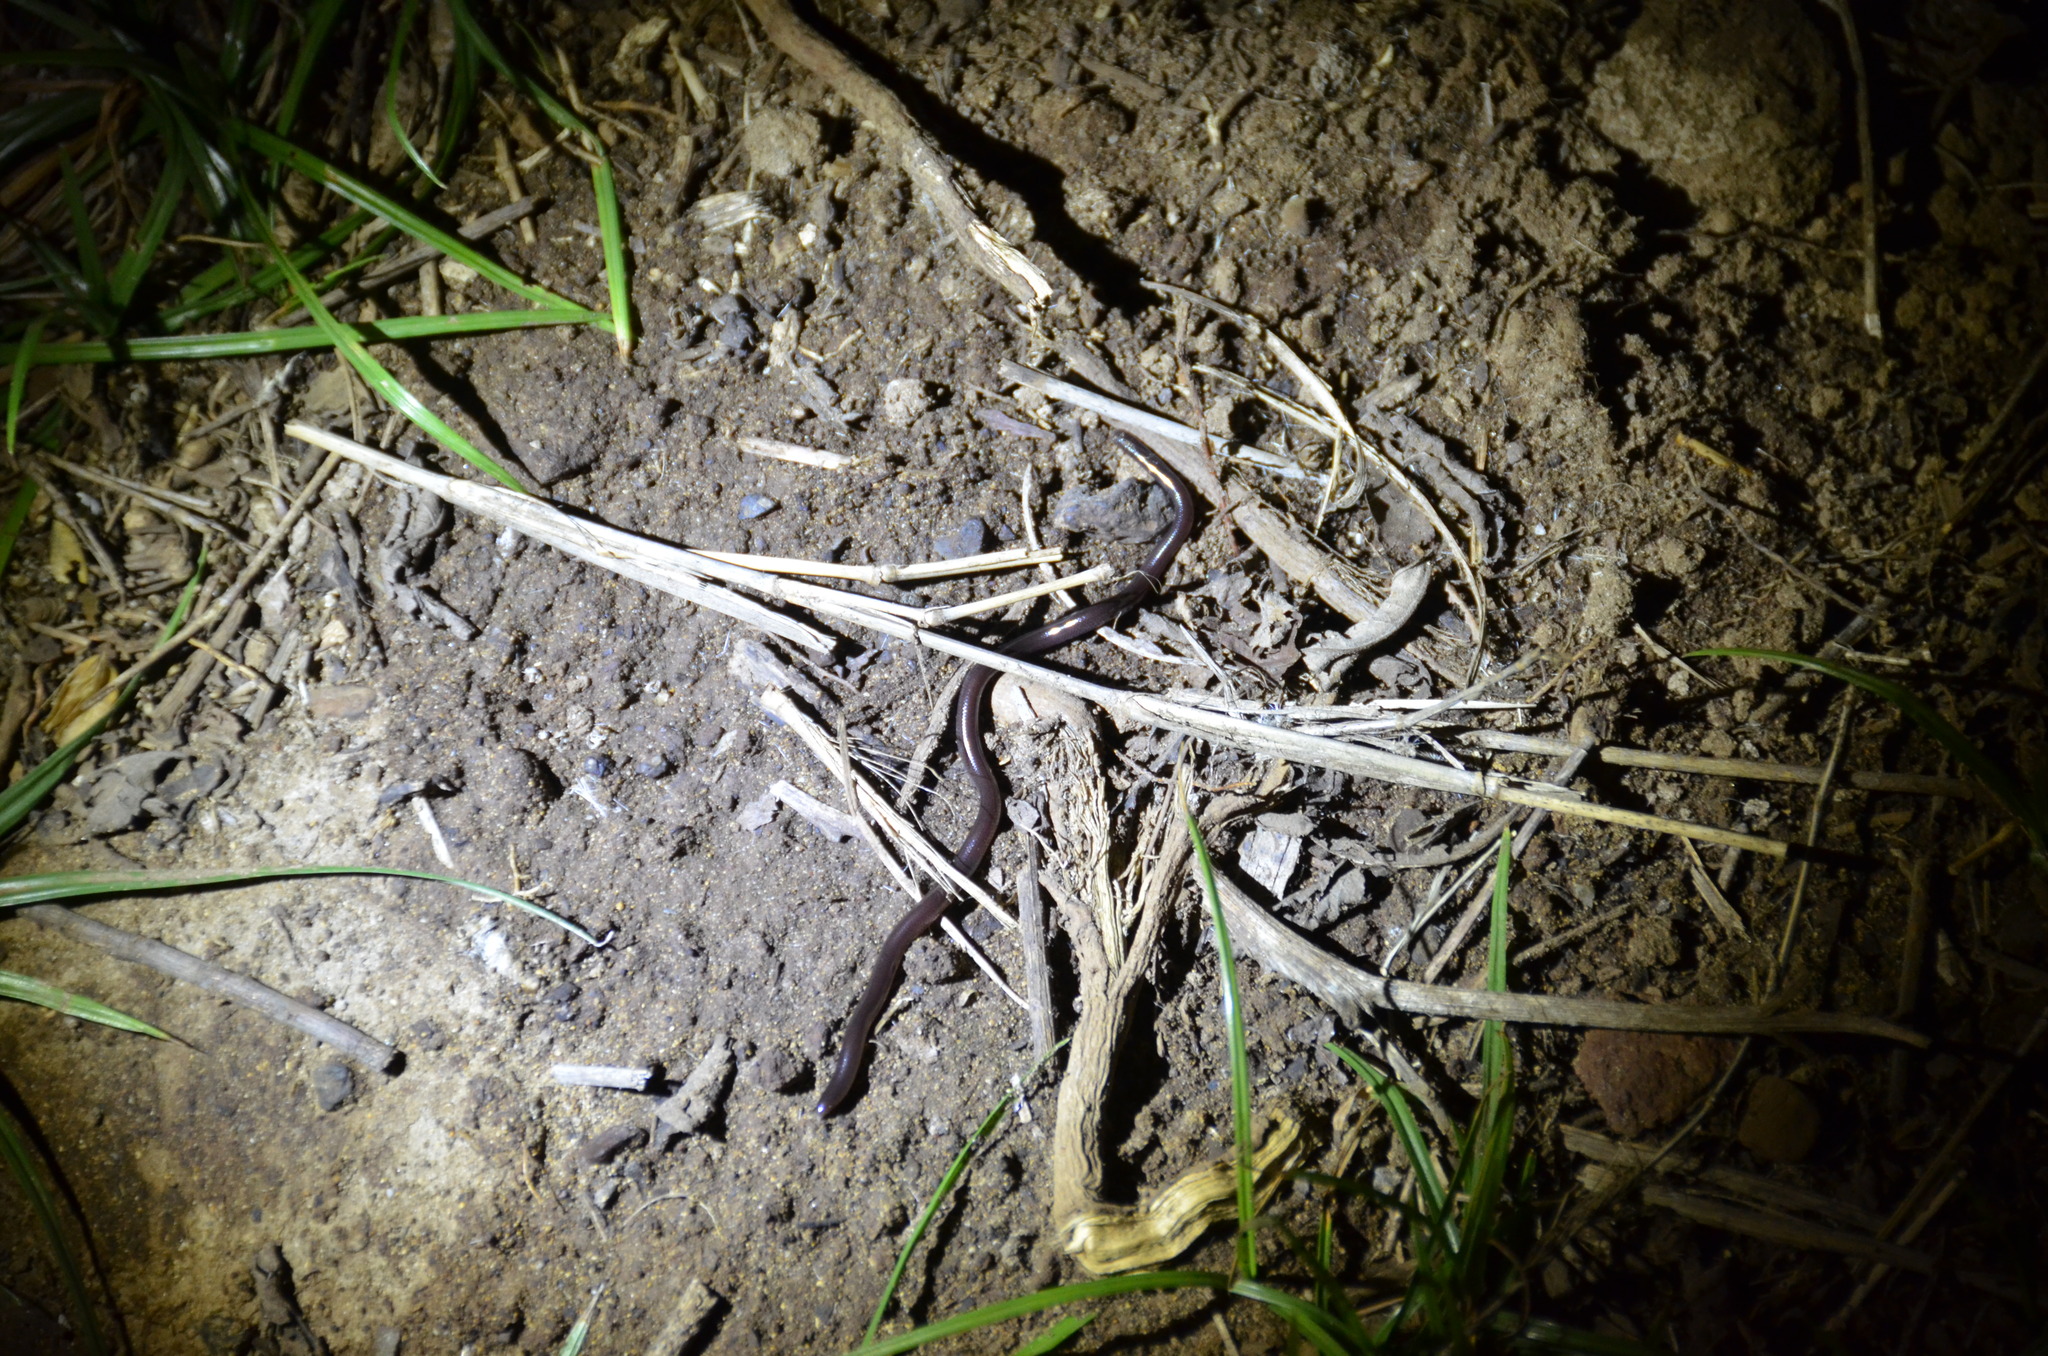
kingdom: Animalia
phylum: Chordata
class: Squamata
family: Typhlopidae
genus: Indotyphlops
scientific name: Indotyphlops braminus
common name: Brahminy blindsnake
